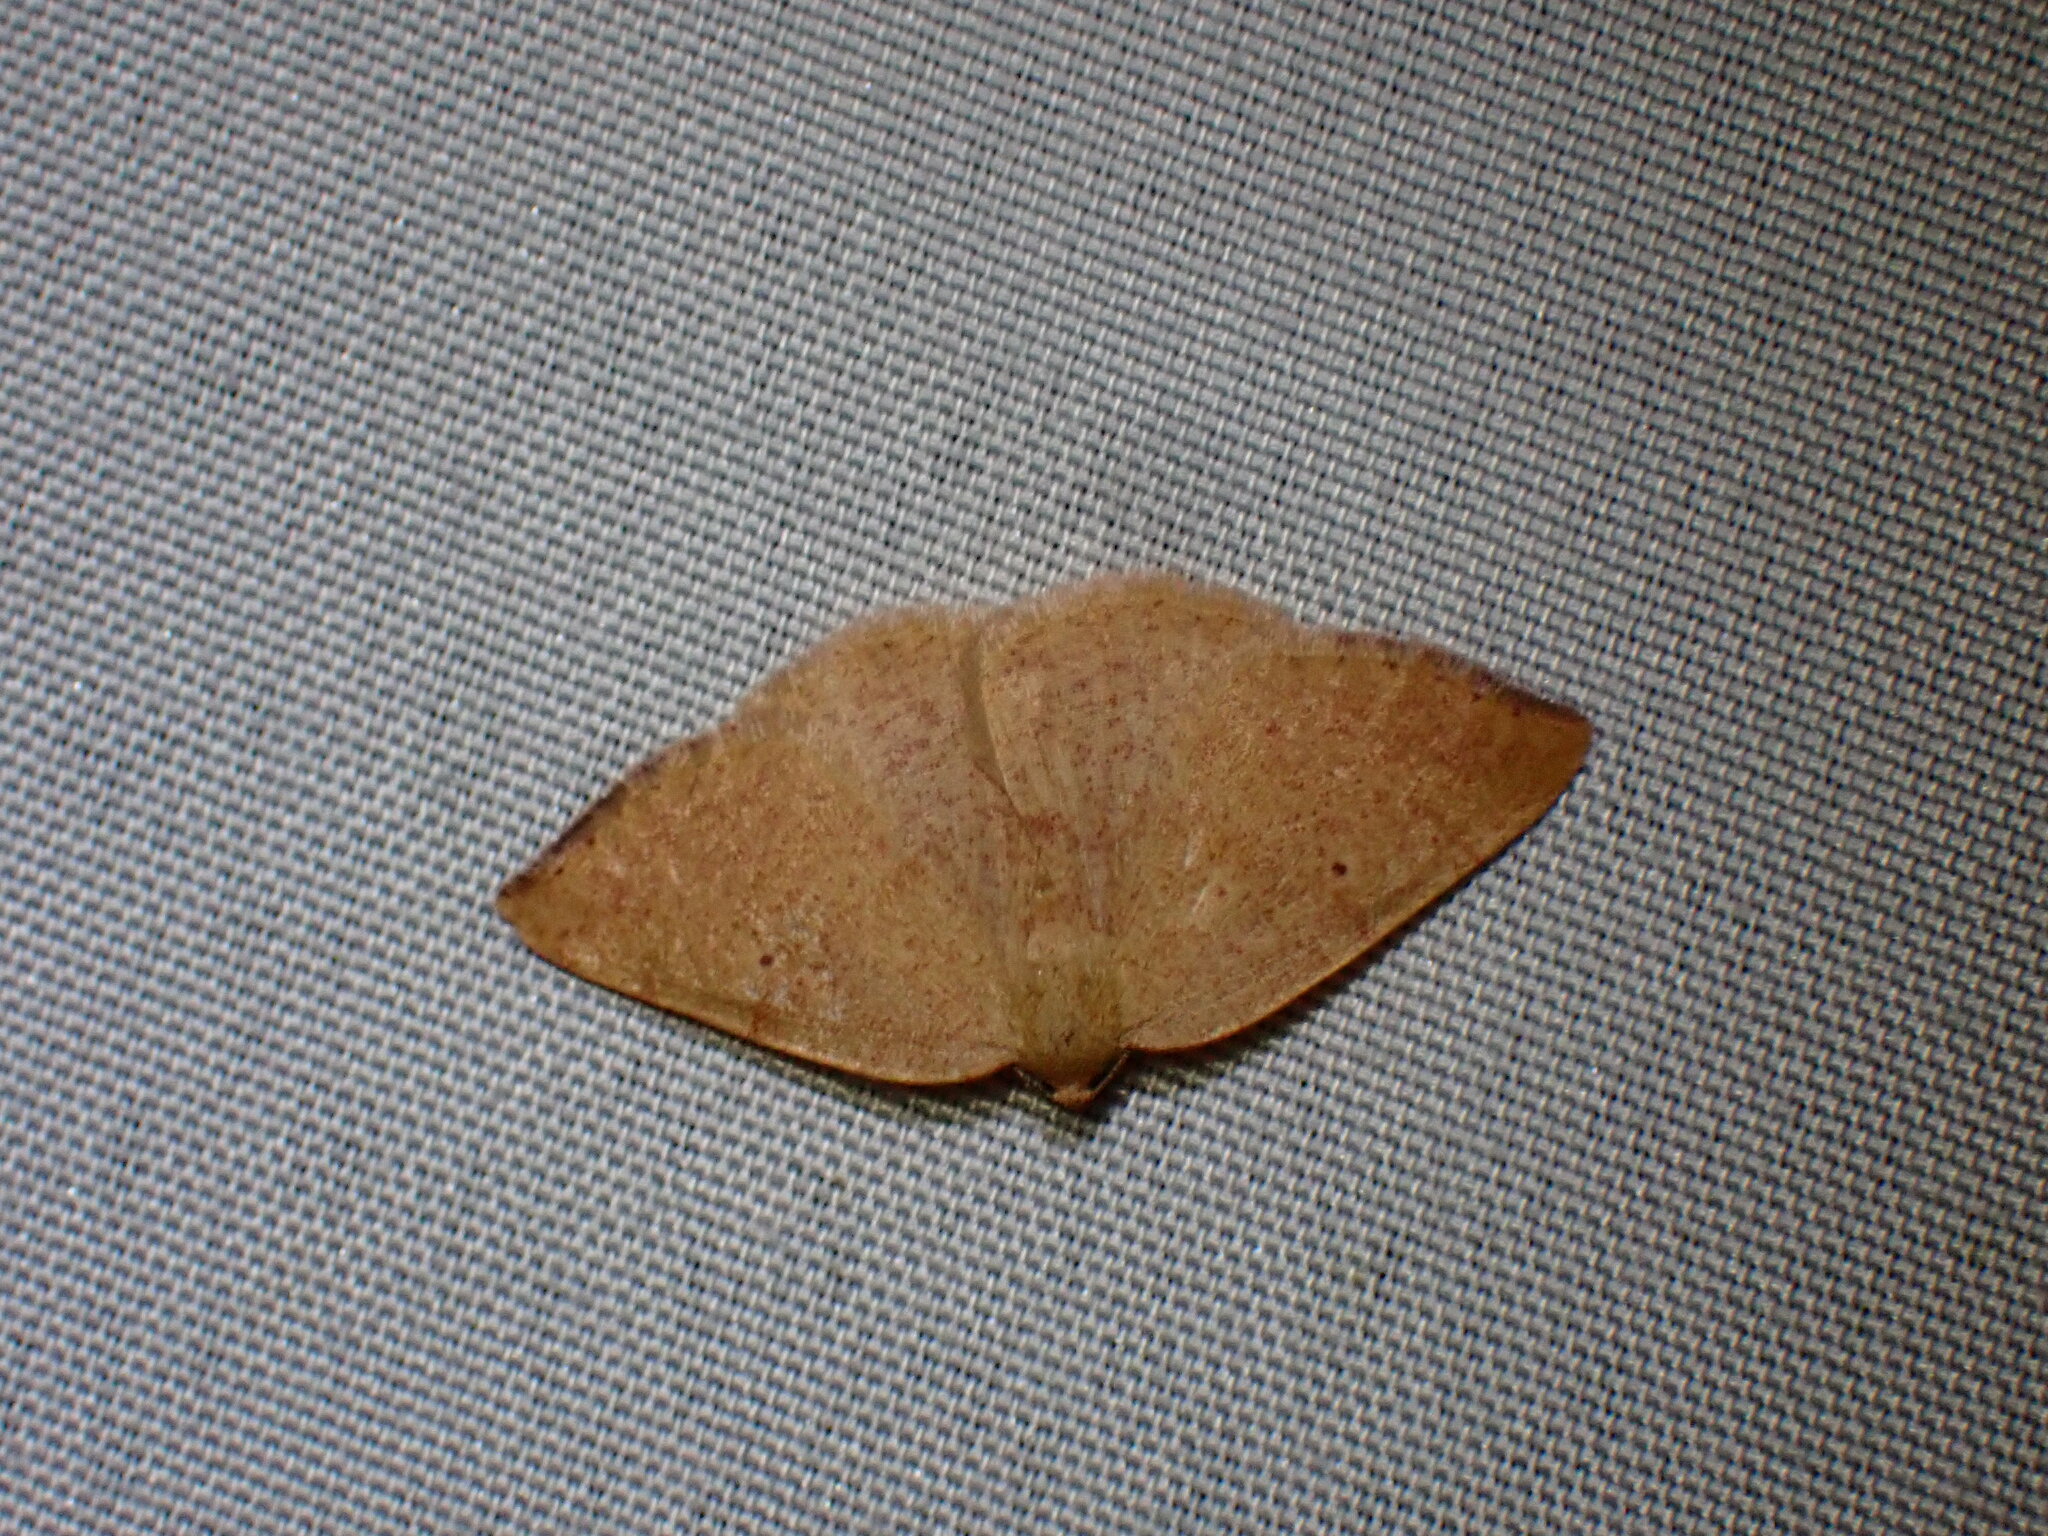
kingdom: Animalia
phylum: Arthropoda
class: Insecta
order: Lepidoptera
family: Geometridae
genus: Eudrepanulatrix
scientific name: Eudrepanulatrix rectifascia
